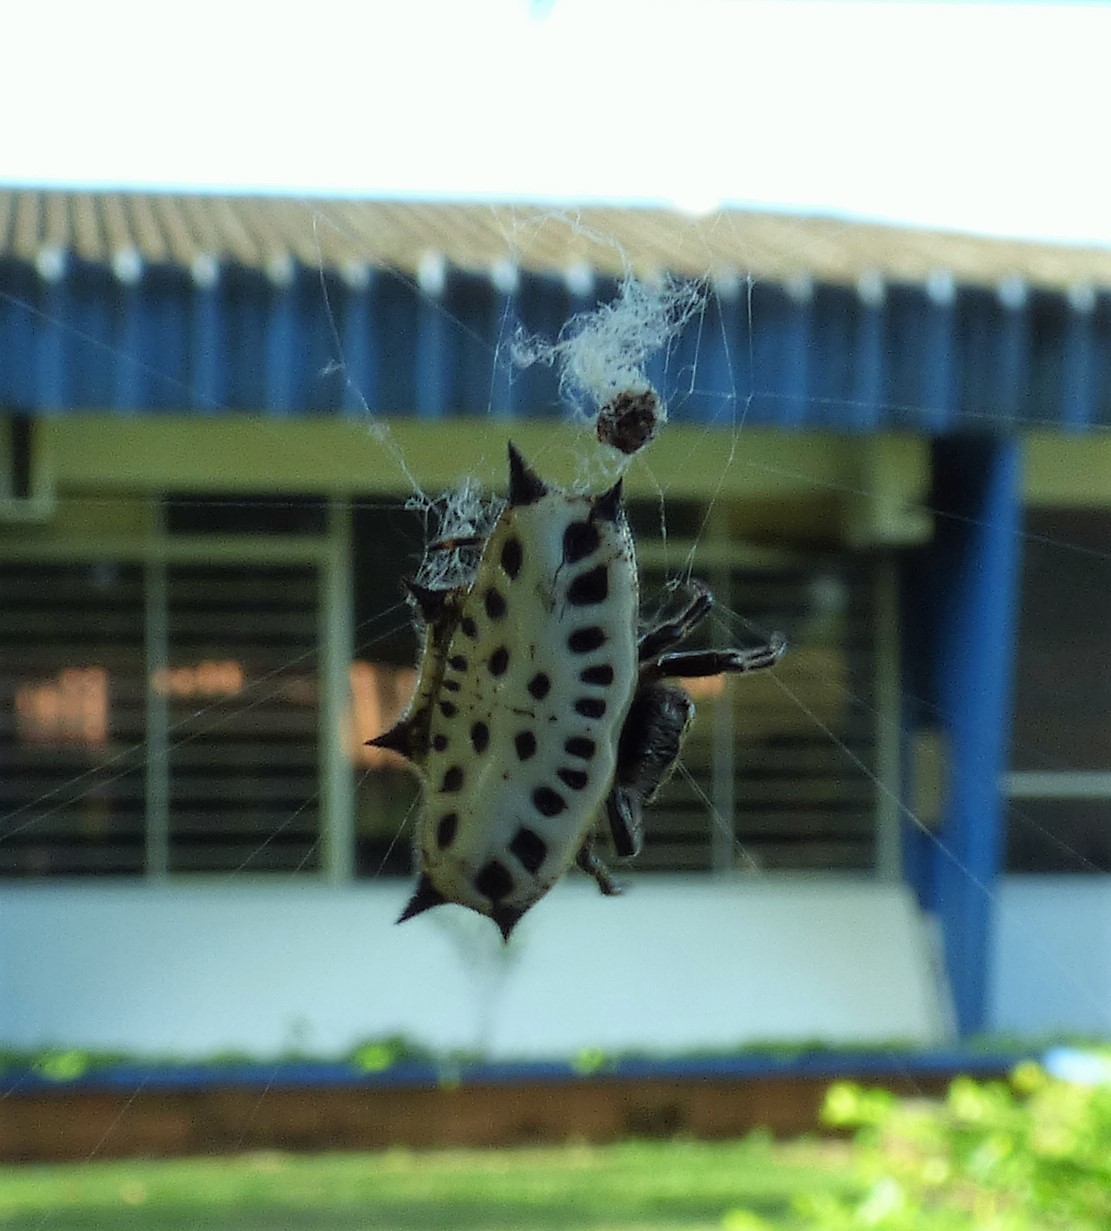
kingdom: Animalia
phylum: Arthropoda
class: Arachnida
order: Araneae
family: Araneidae
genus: Gasteracantha
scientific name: Gasteracantha cancriformis
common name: Orb weavers
